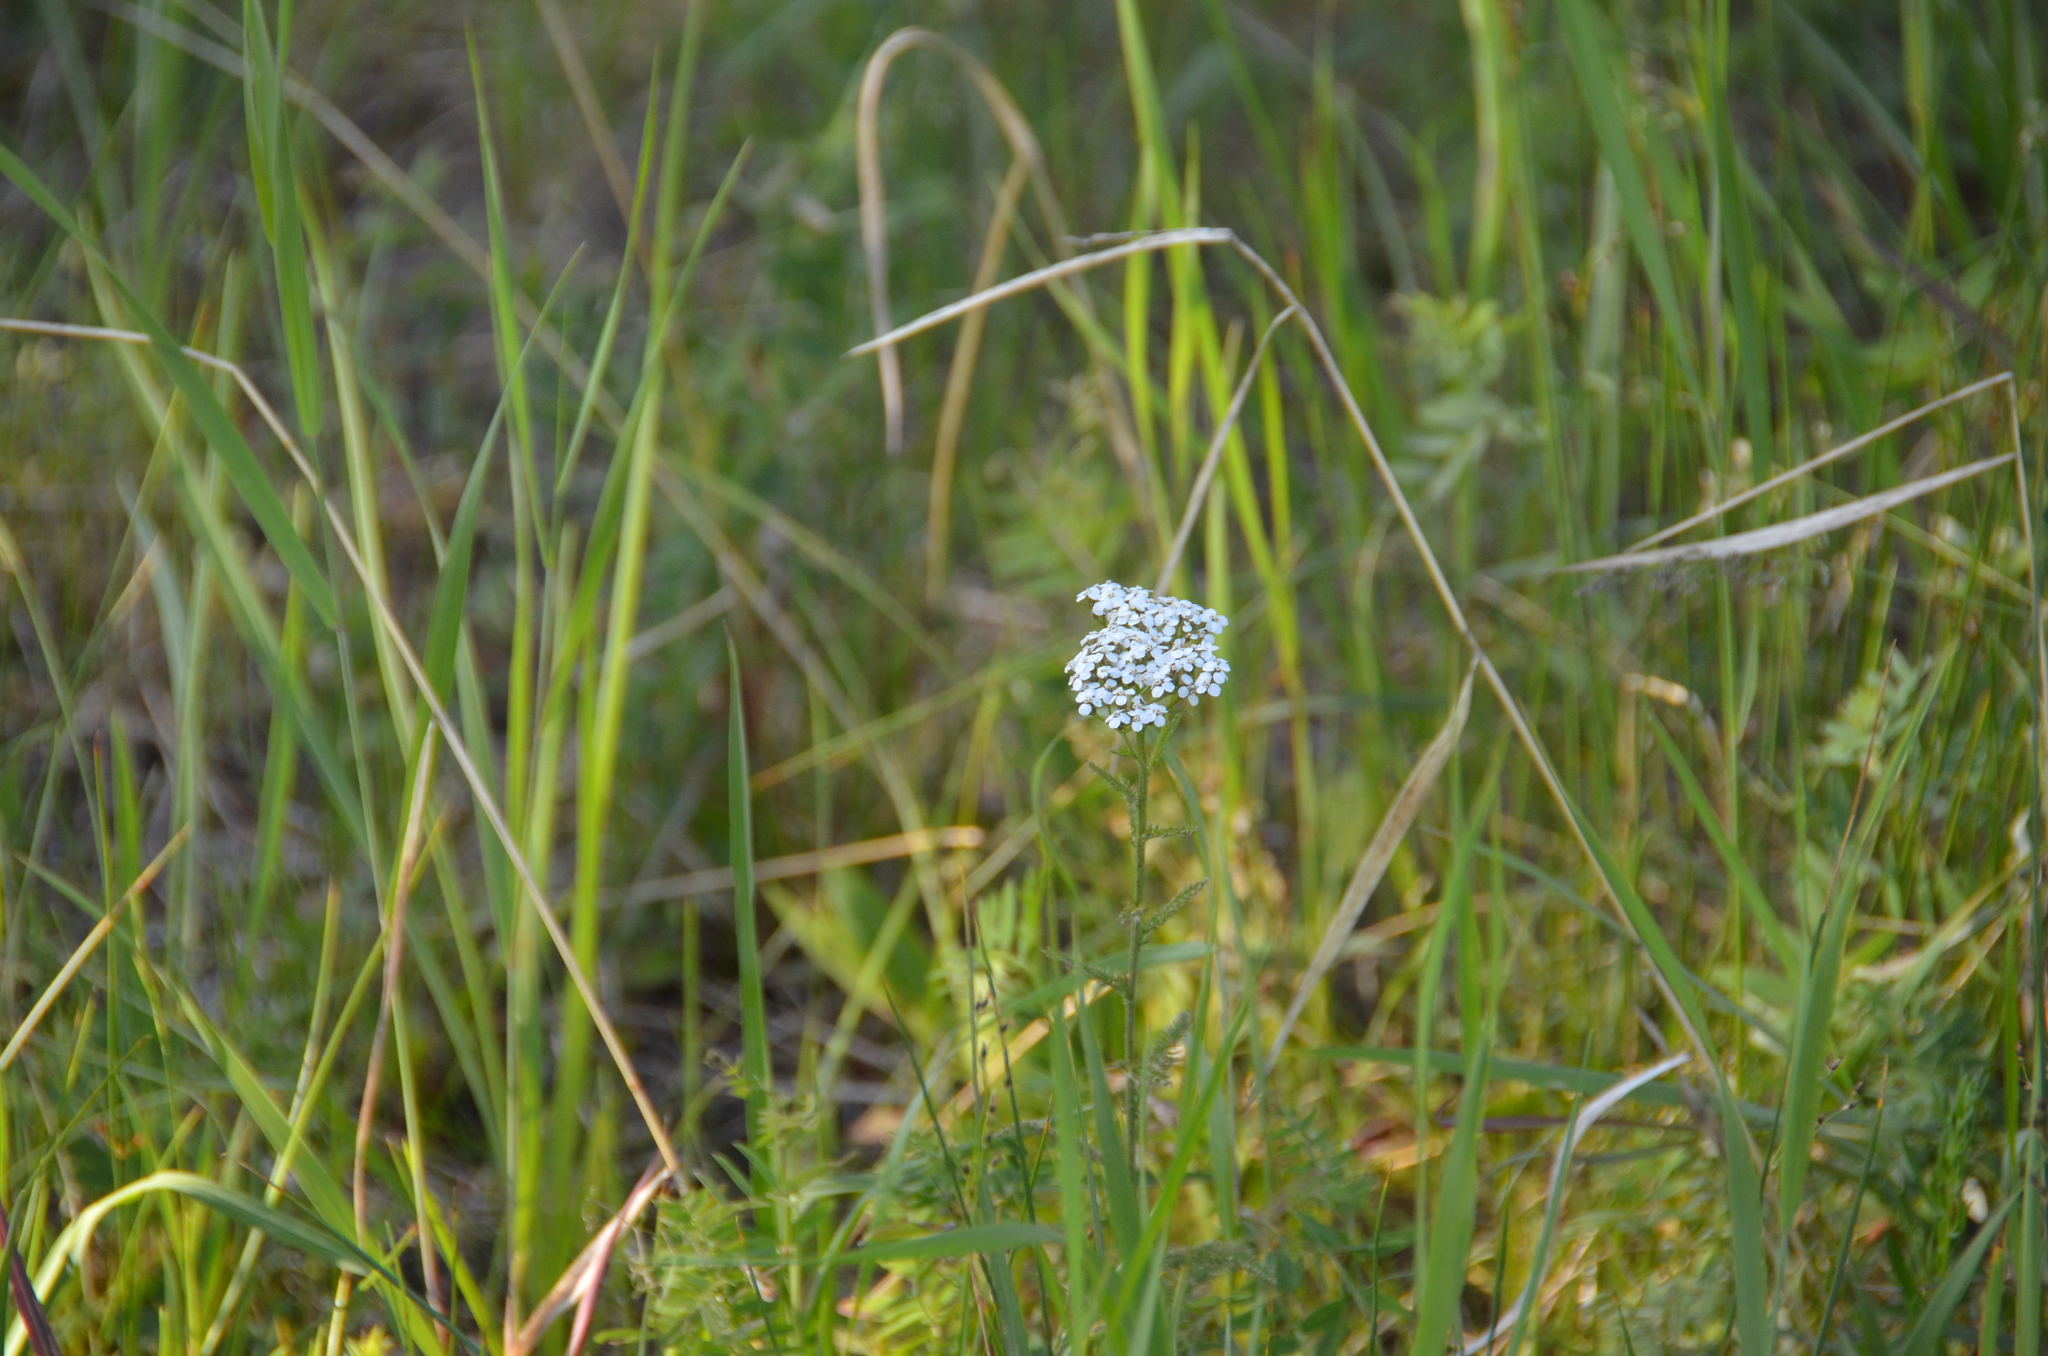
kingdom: Plantae
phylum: Tracheophyta
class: Magnoliopsida
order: Asterales
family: Asteraceae
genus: Achillea
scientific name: Achillea millefolium
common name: Yarrow
